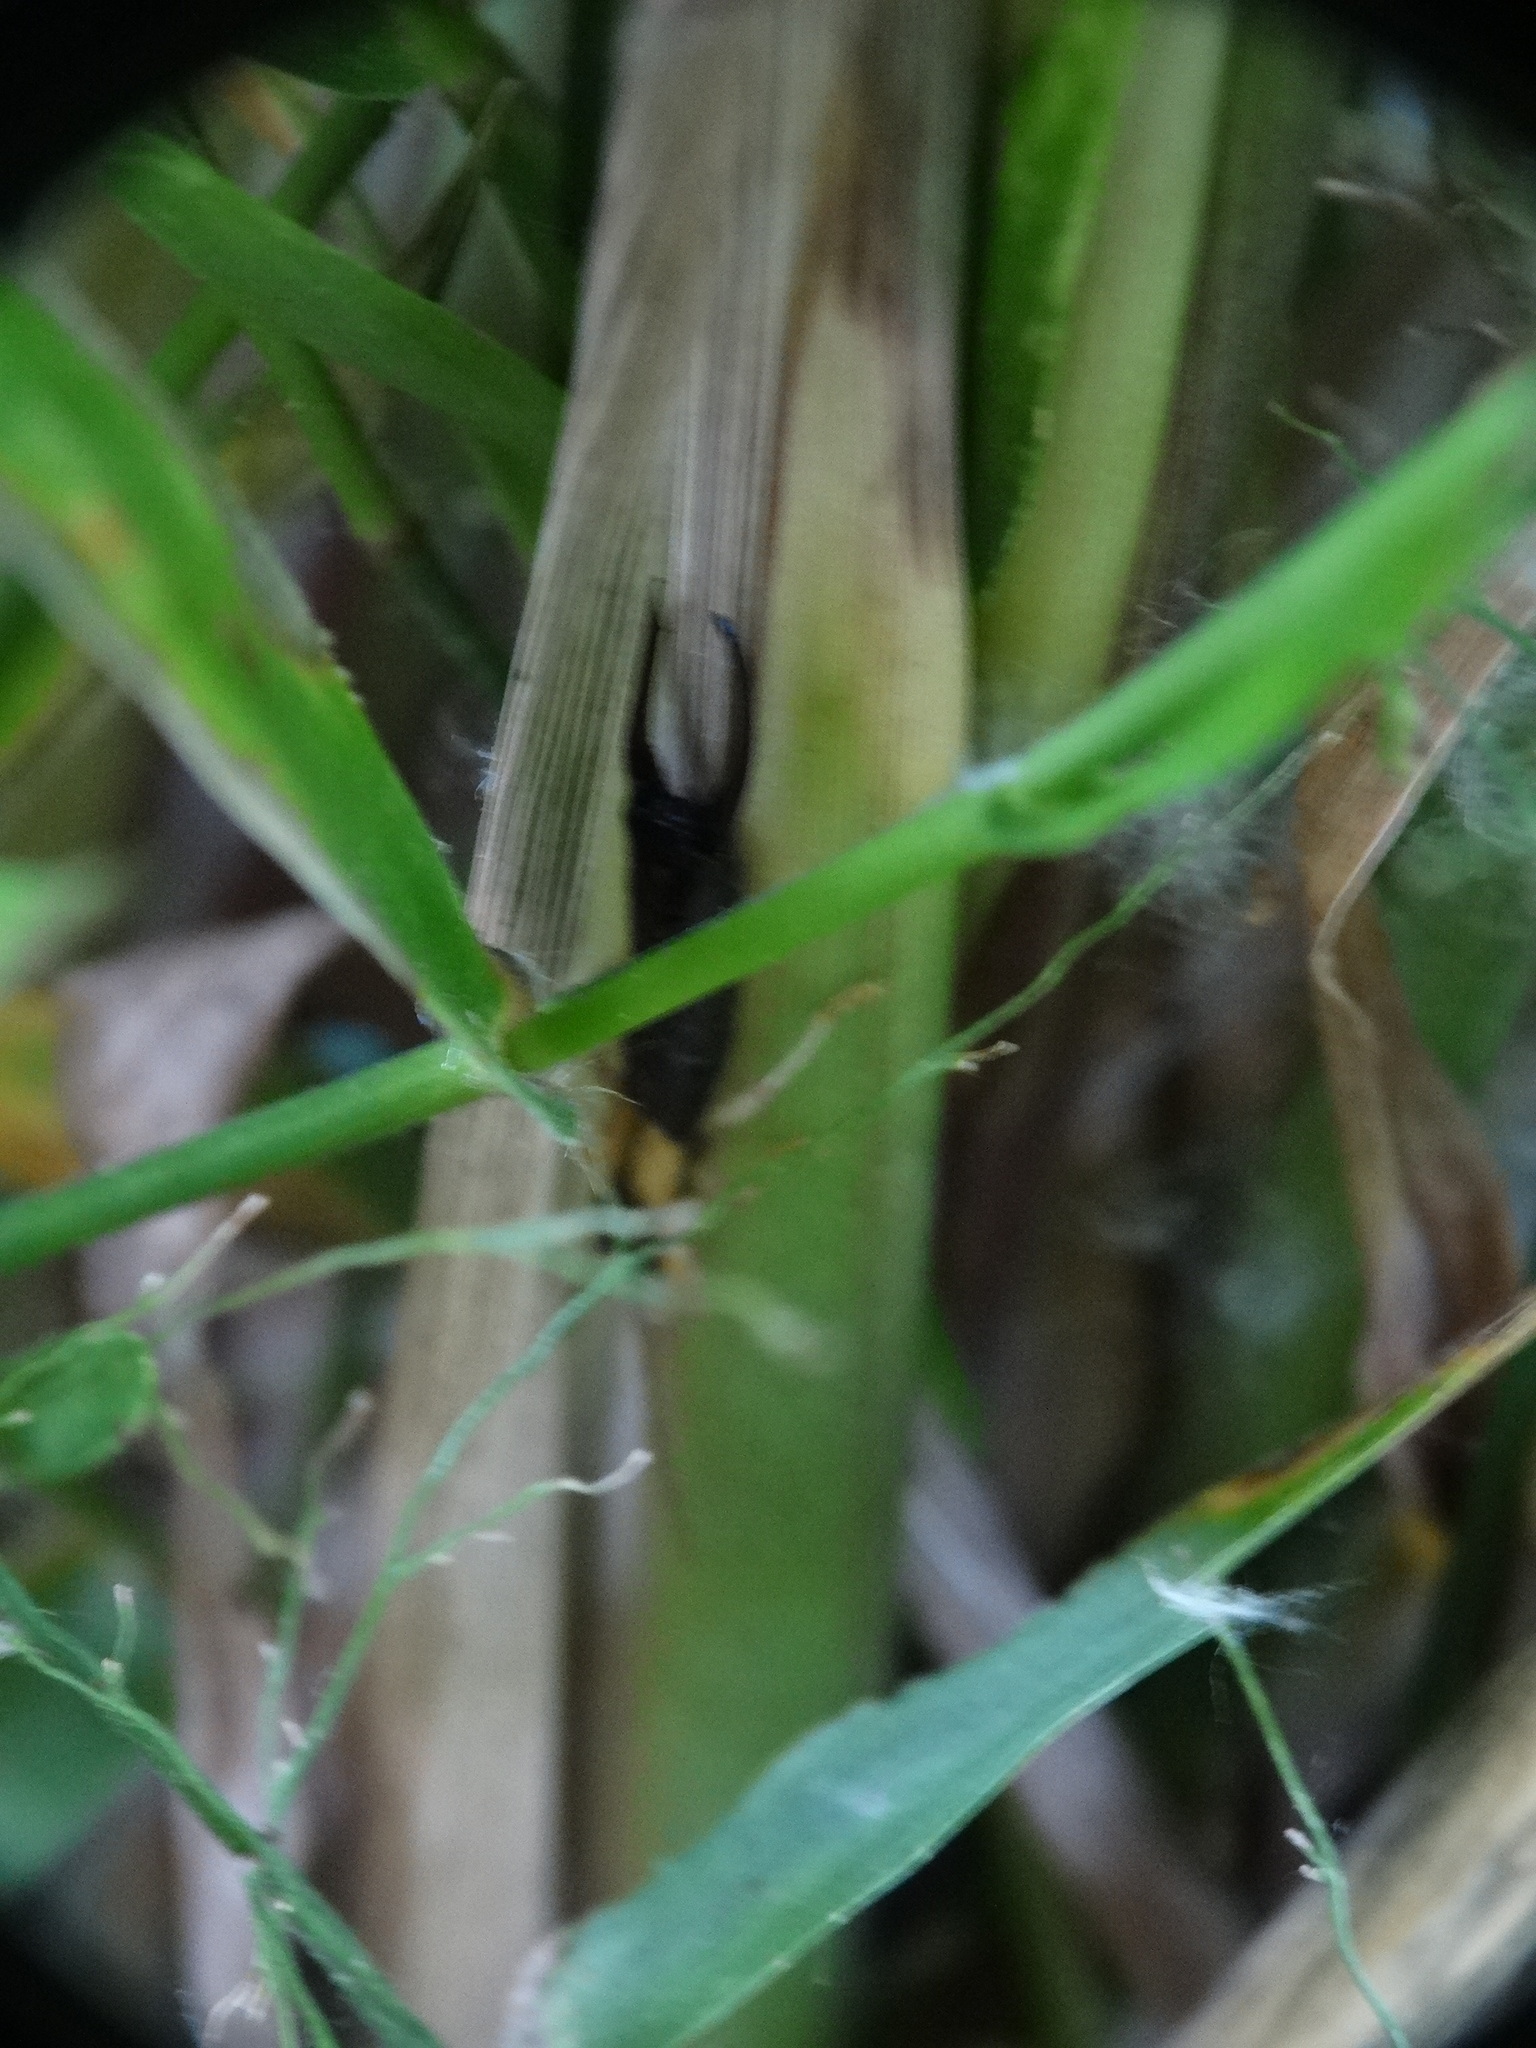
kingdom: Animalia
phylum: Arthropoda
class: Insecta
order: Dermaptera
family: Forficulidae
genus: Doru
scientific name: Doru
